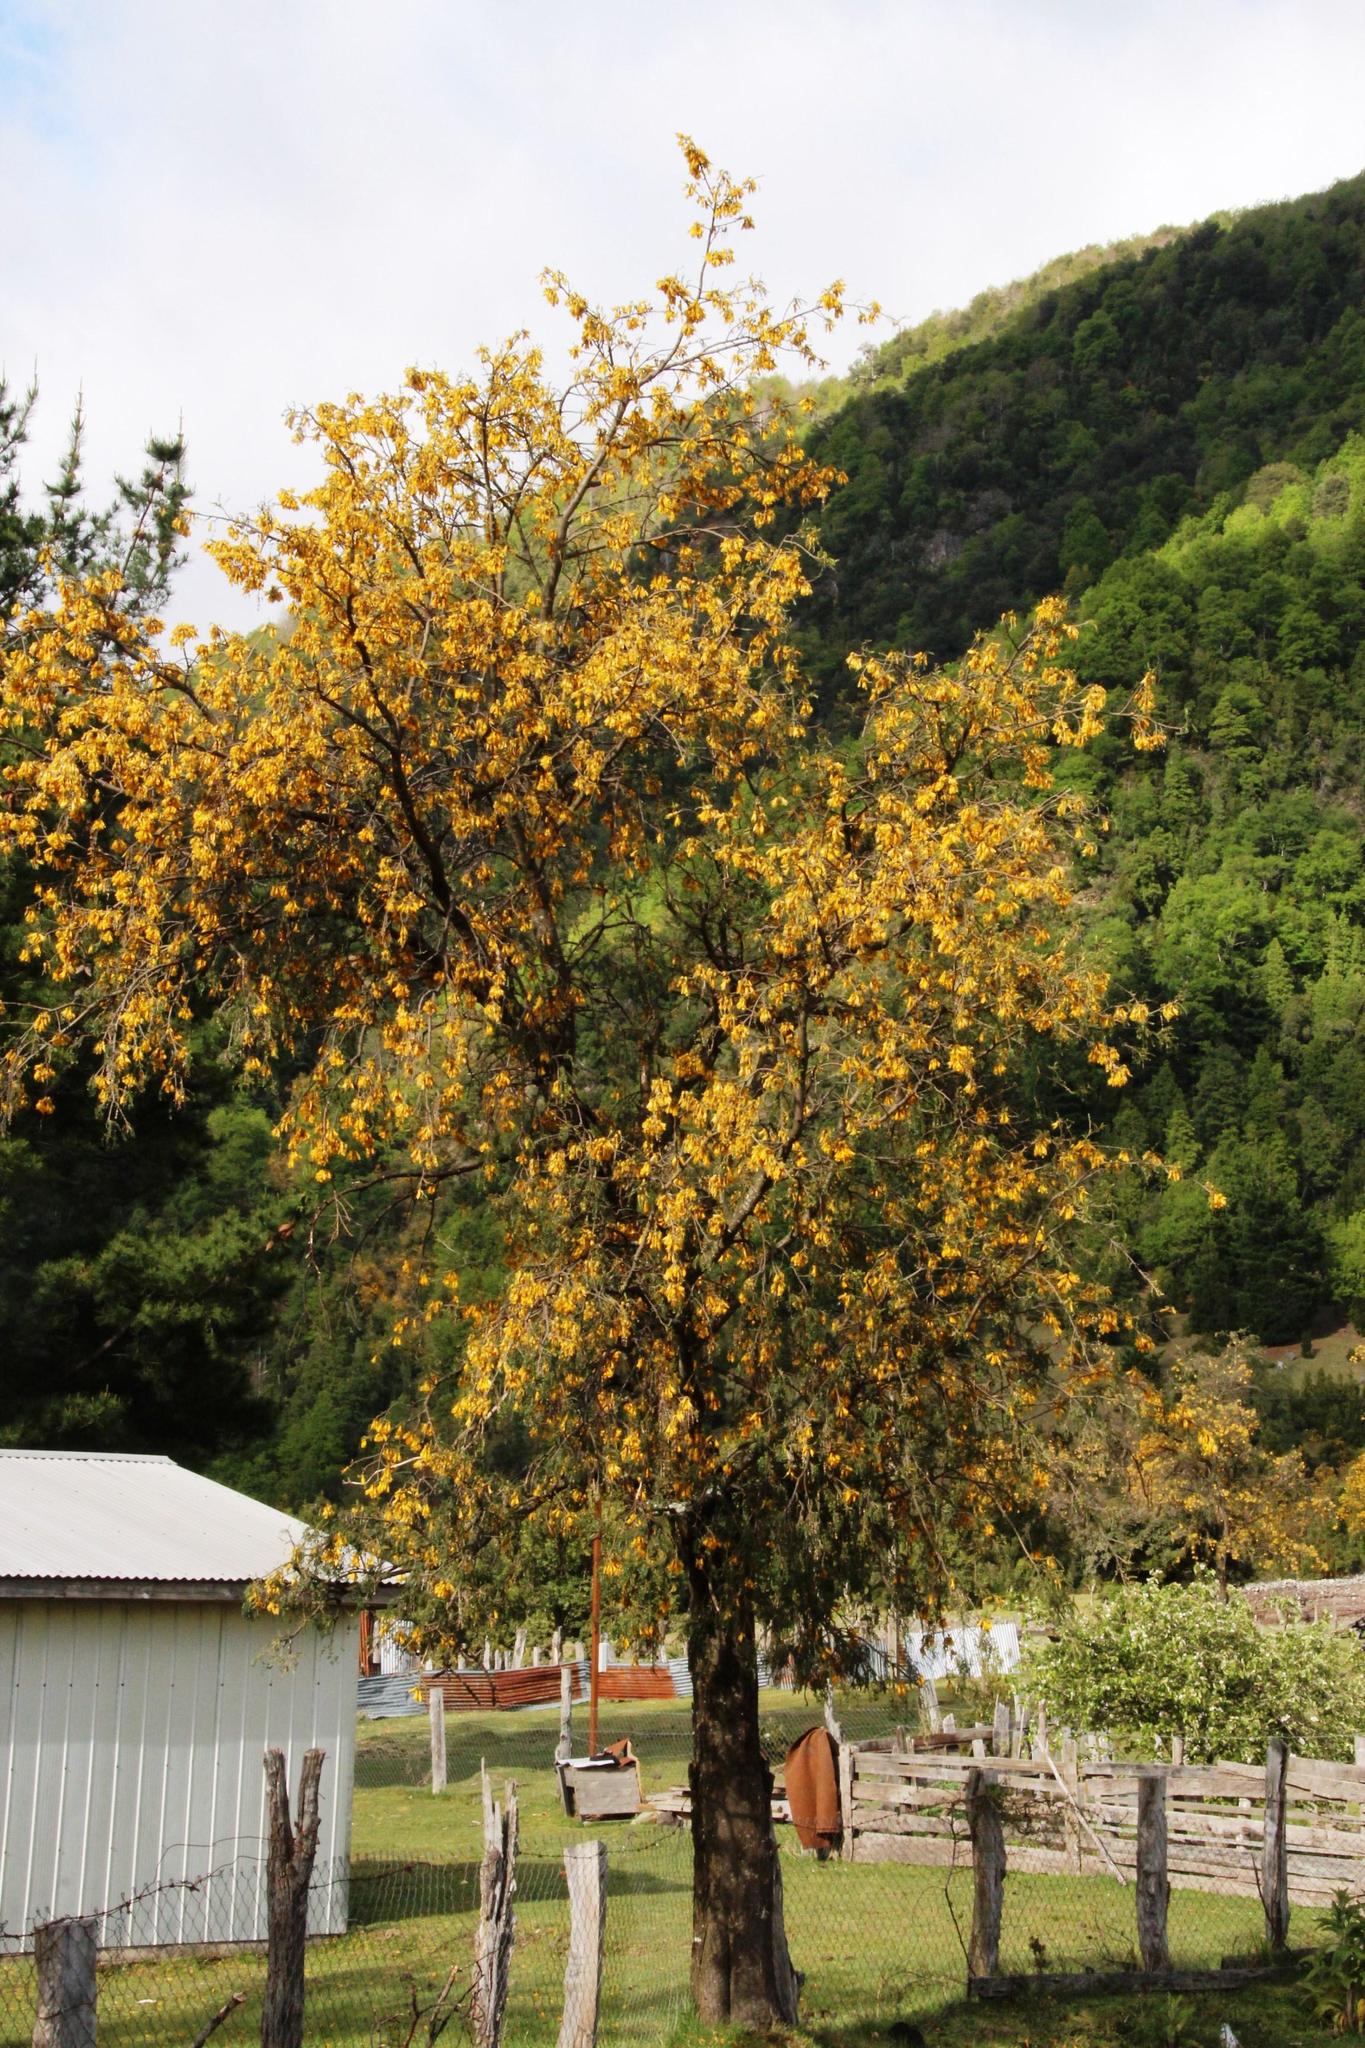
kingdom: Plantae
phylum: Tracheophyta
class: Magnoliopsida
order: Fabales
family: Fabaceae
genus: Sophora
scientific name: Sophora cassioides
